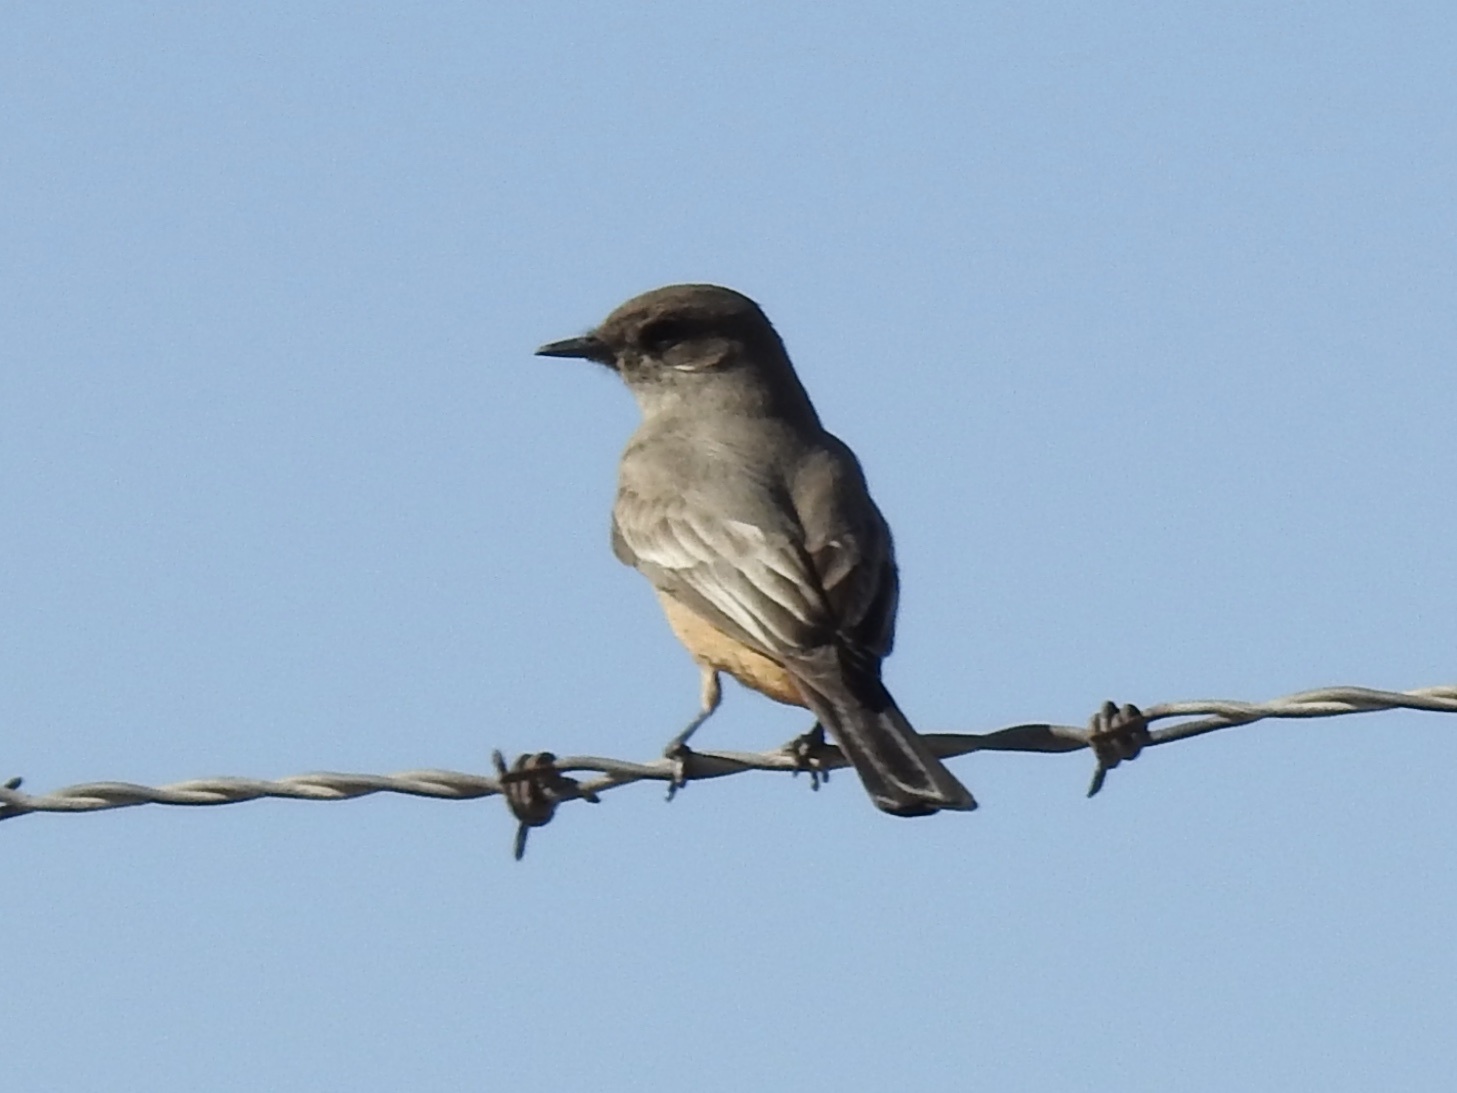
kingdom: Animalia
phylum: Chordata
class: Aves
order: Passeriformes
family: Tyrannidae
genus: Sayornis
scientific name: Sayornis saya
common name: Say's phoebe
